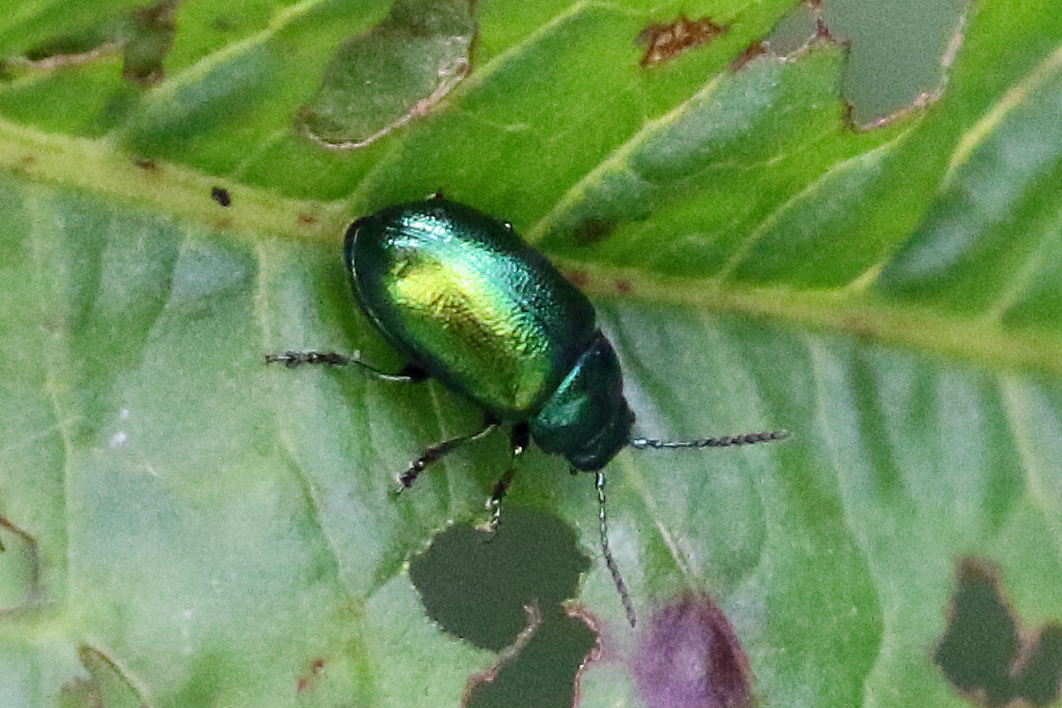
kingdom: Animalia
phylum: Arthropoda
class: Insecta
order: Coleoptera
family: Chrysomelidae
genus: Gastrophysa
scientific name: Gastrophysa viridula
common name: Green dock beetle
